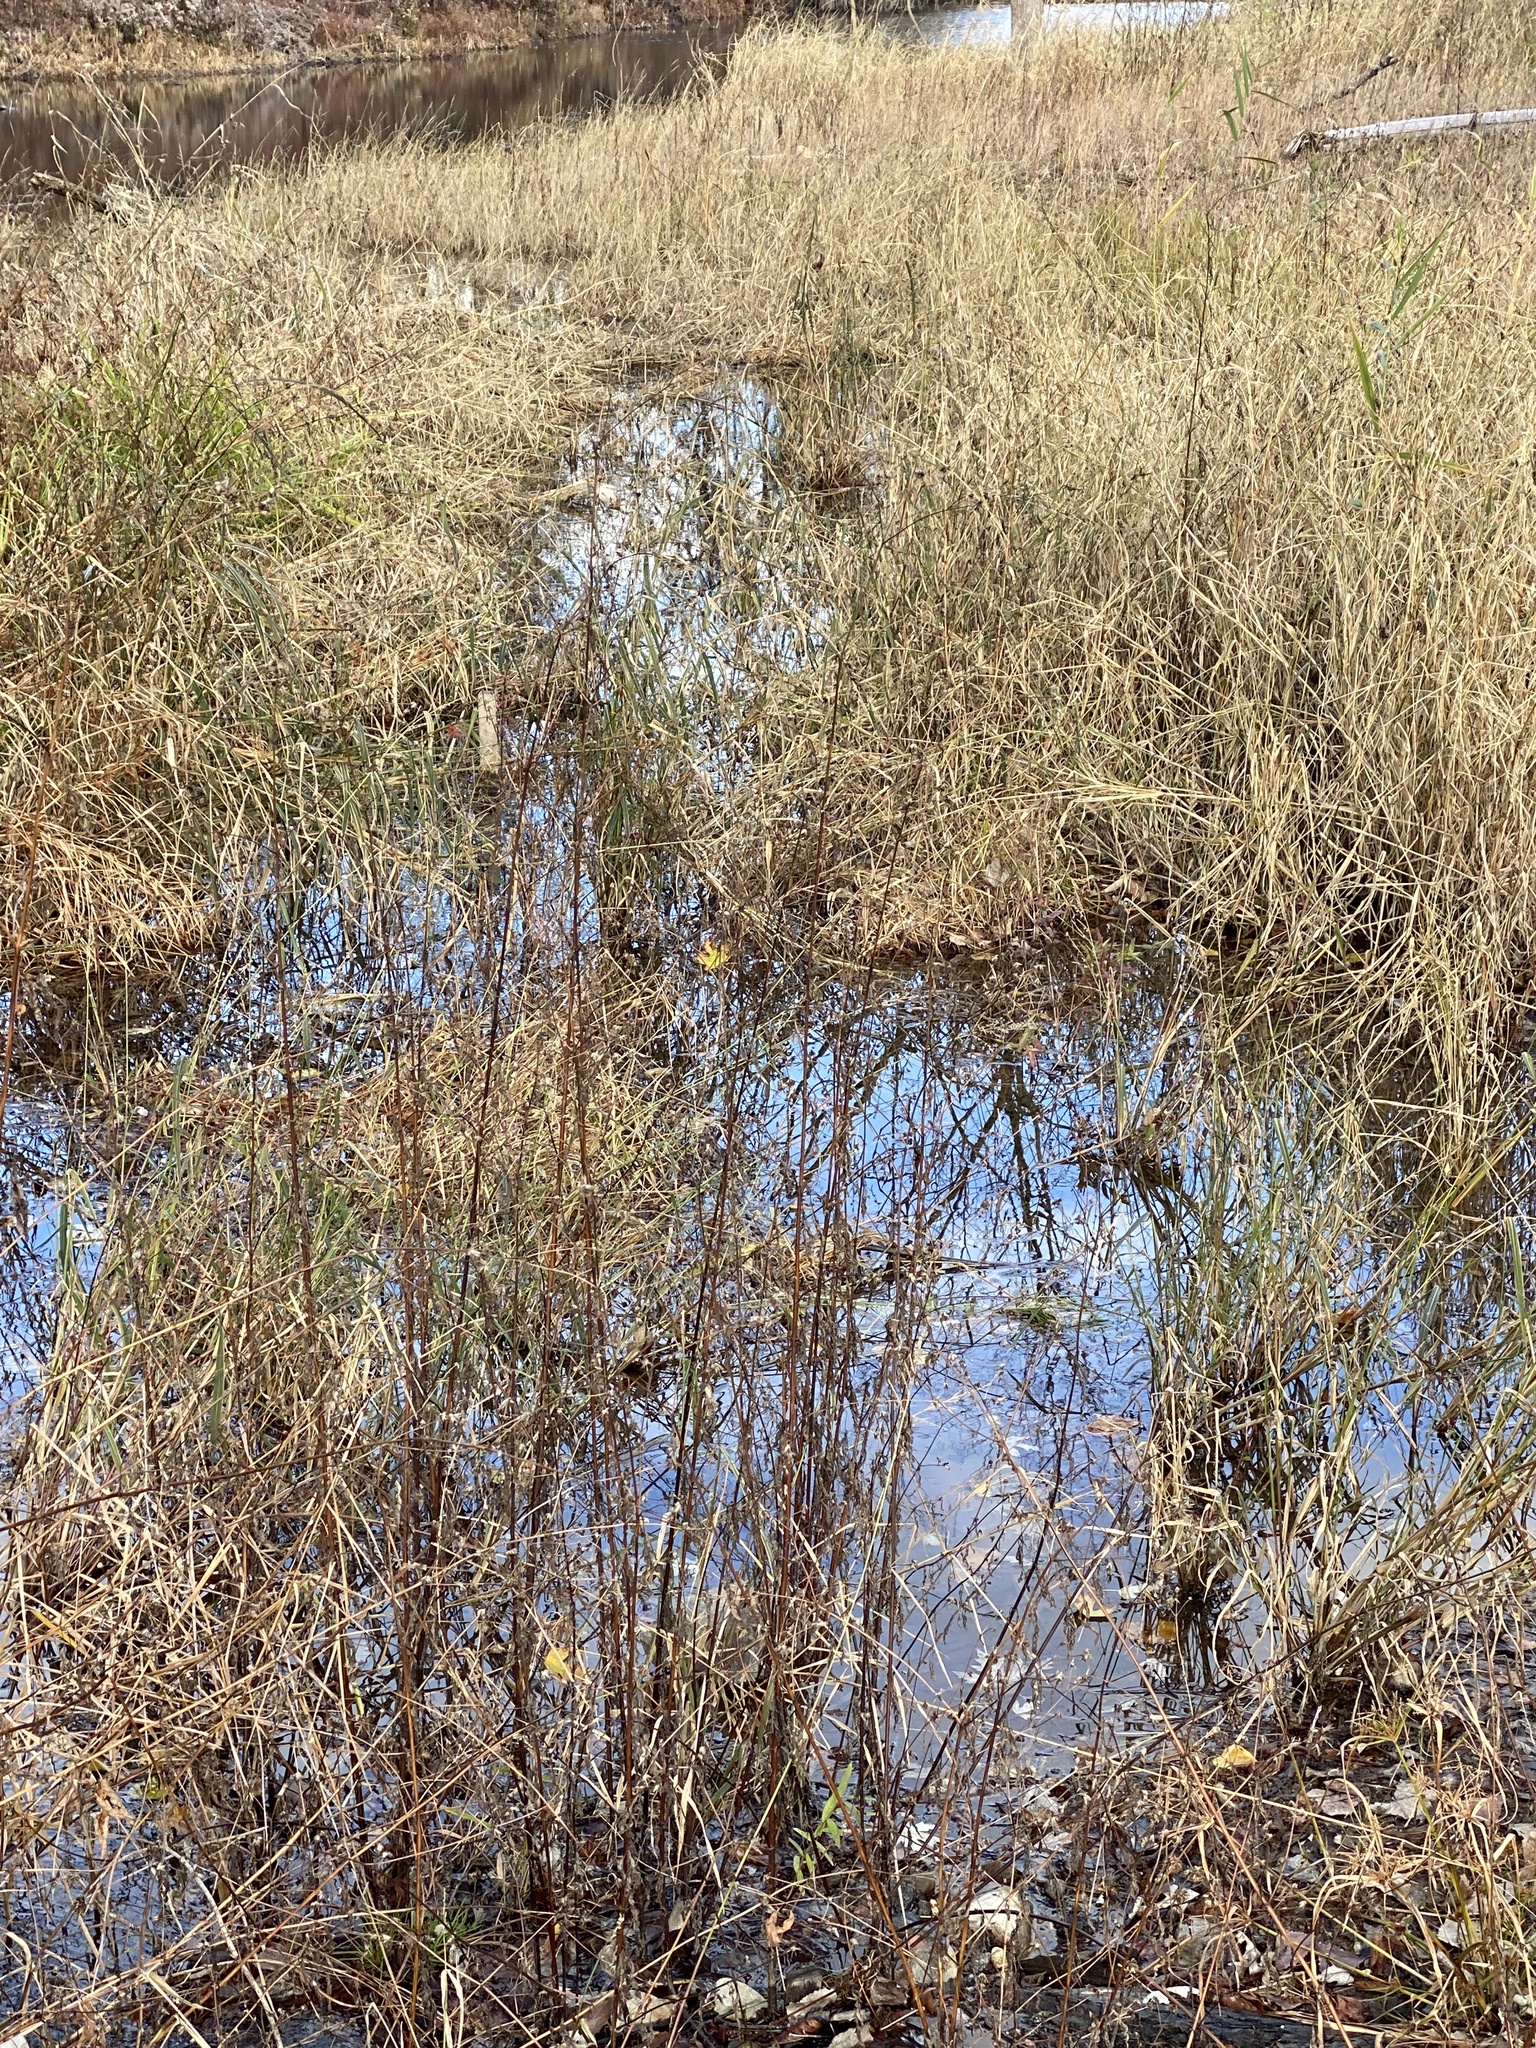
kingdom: Animalia
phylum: Chordata
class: Aves
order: Anseriformes
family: Anatidae
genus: Anas
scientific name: Anas platyrhynchos
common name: Mallard
